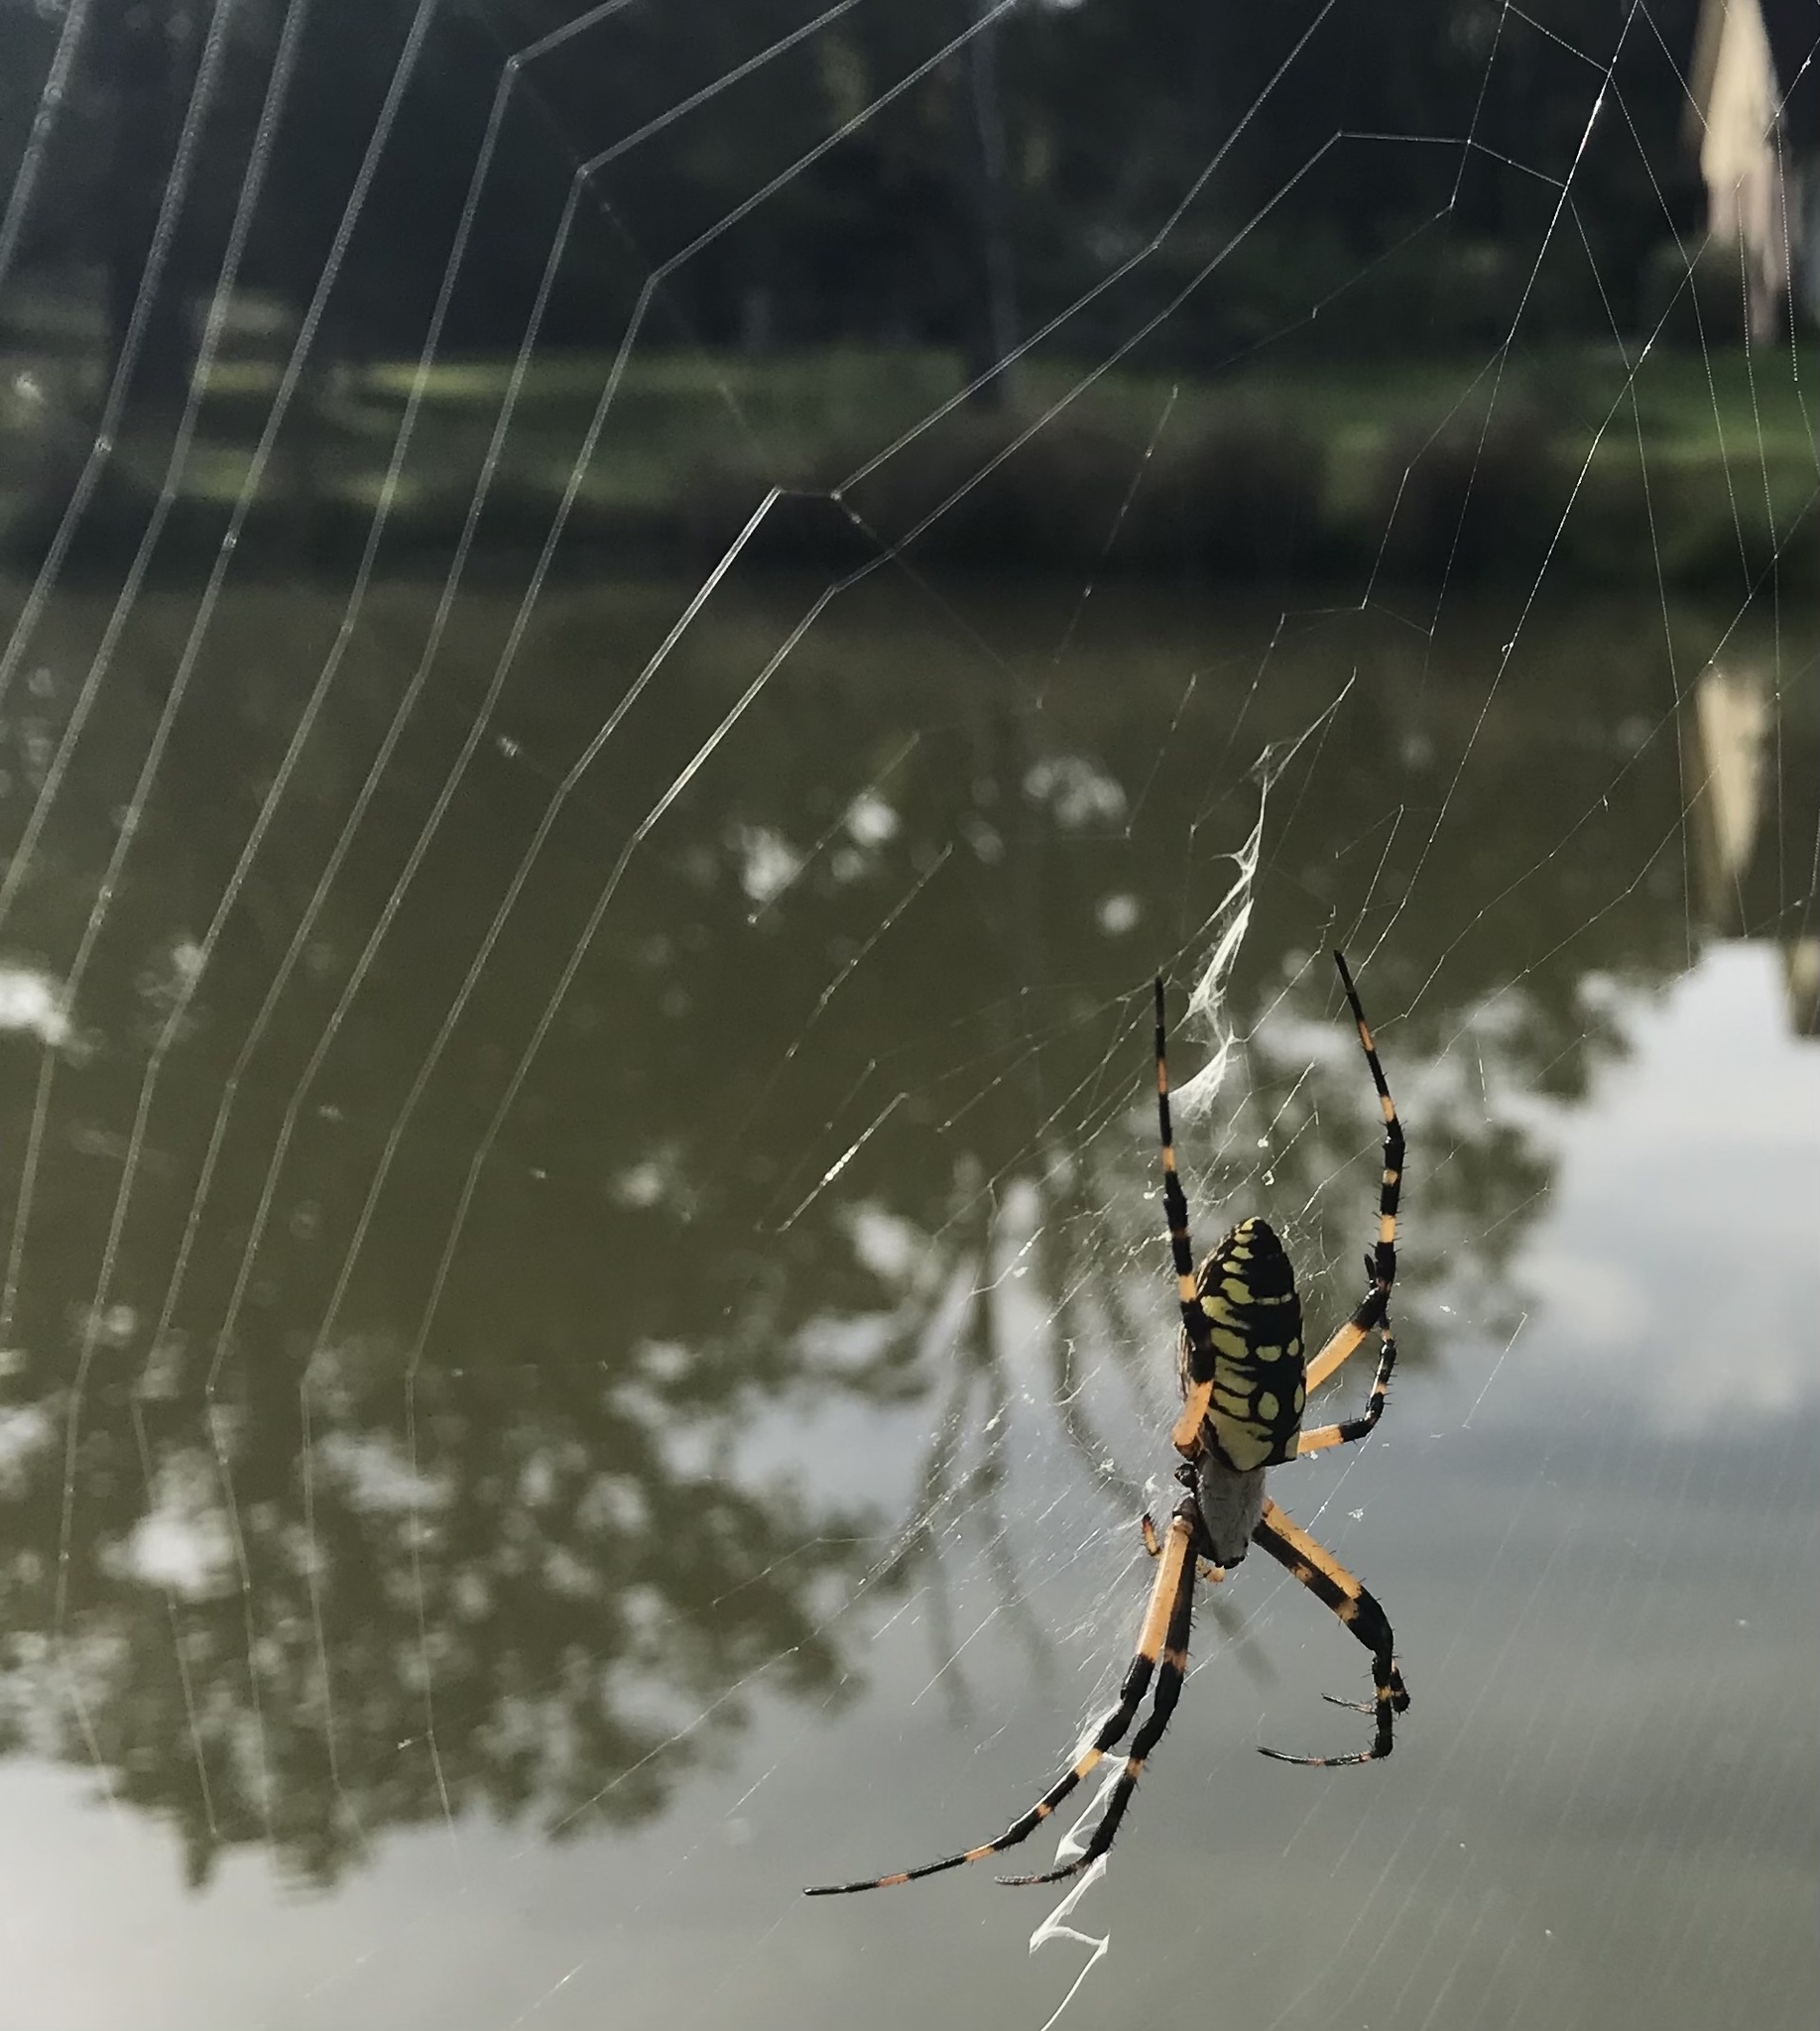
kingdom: Animalia
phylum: Arthropoda
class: Arachnida
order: Araneae
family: Araneidae
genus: Argiope
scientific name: Argiope aurantia
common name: Orb weavers
